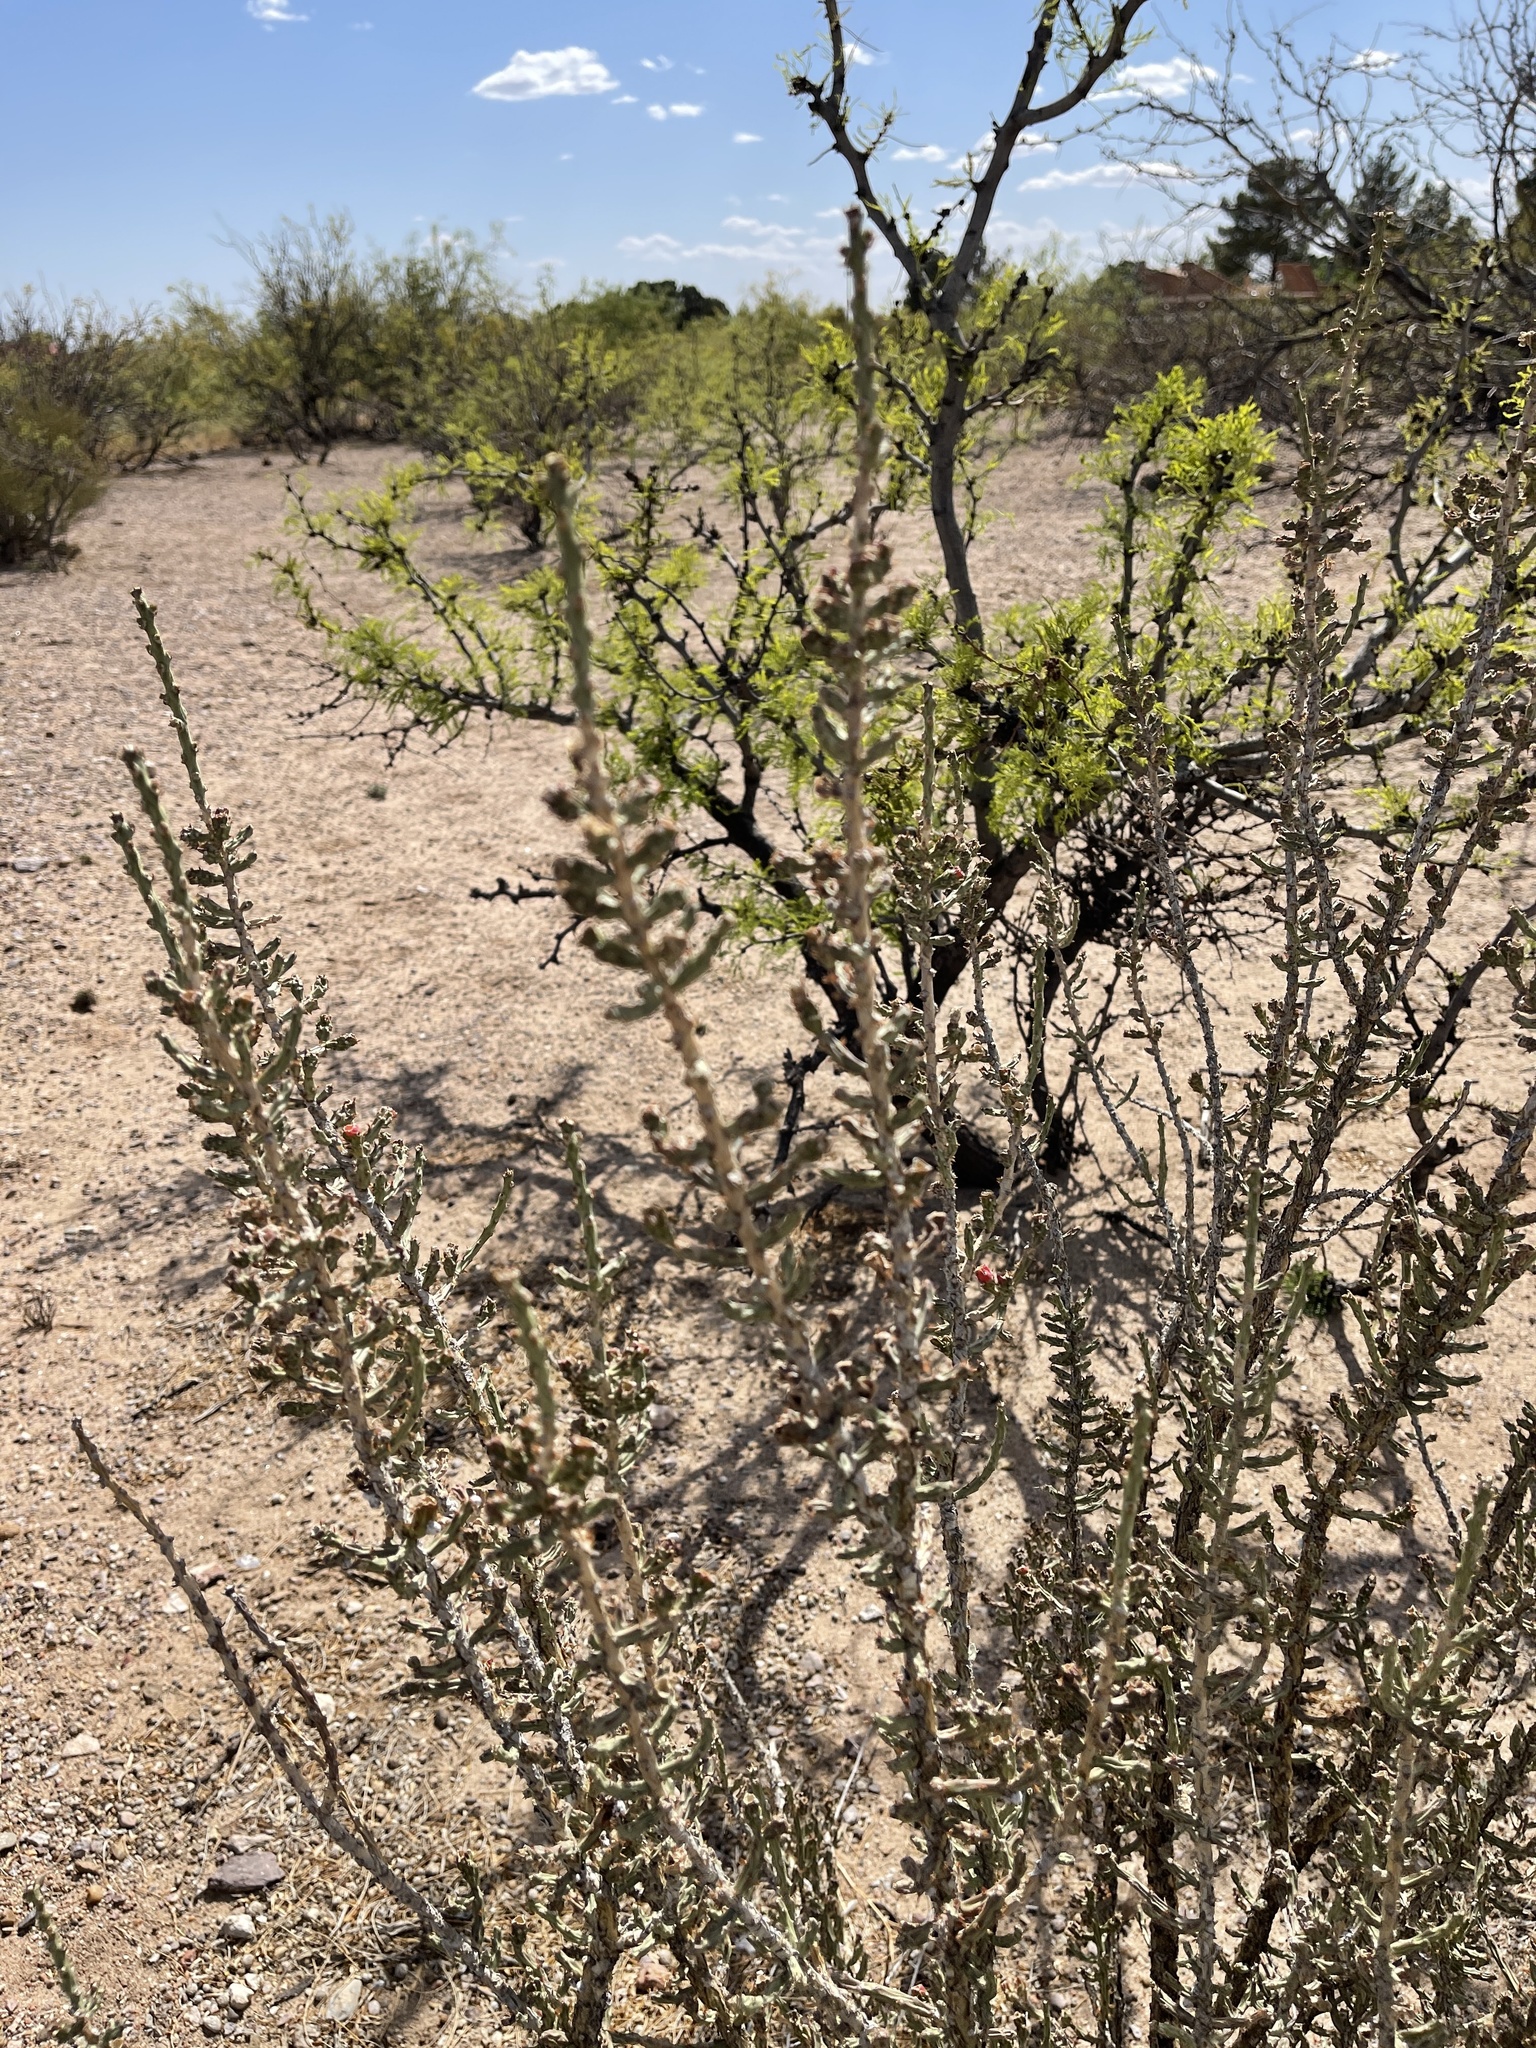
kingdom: Plantae
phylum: Tracheophyta
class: Magnoliopsida
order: Caryophyllales
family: Cactaceae
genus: Cylindropuntia
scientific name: Cylindropuntia leptocaulis
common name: Christmas cactus
